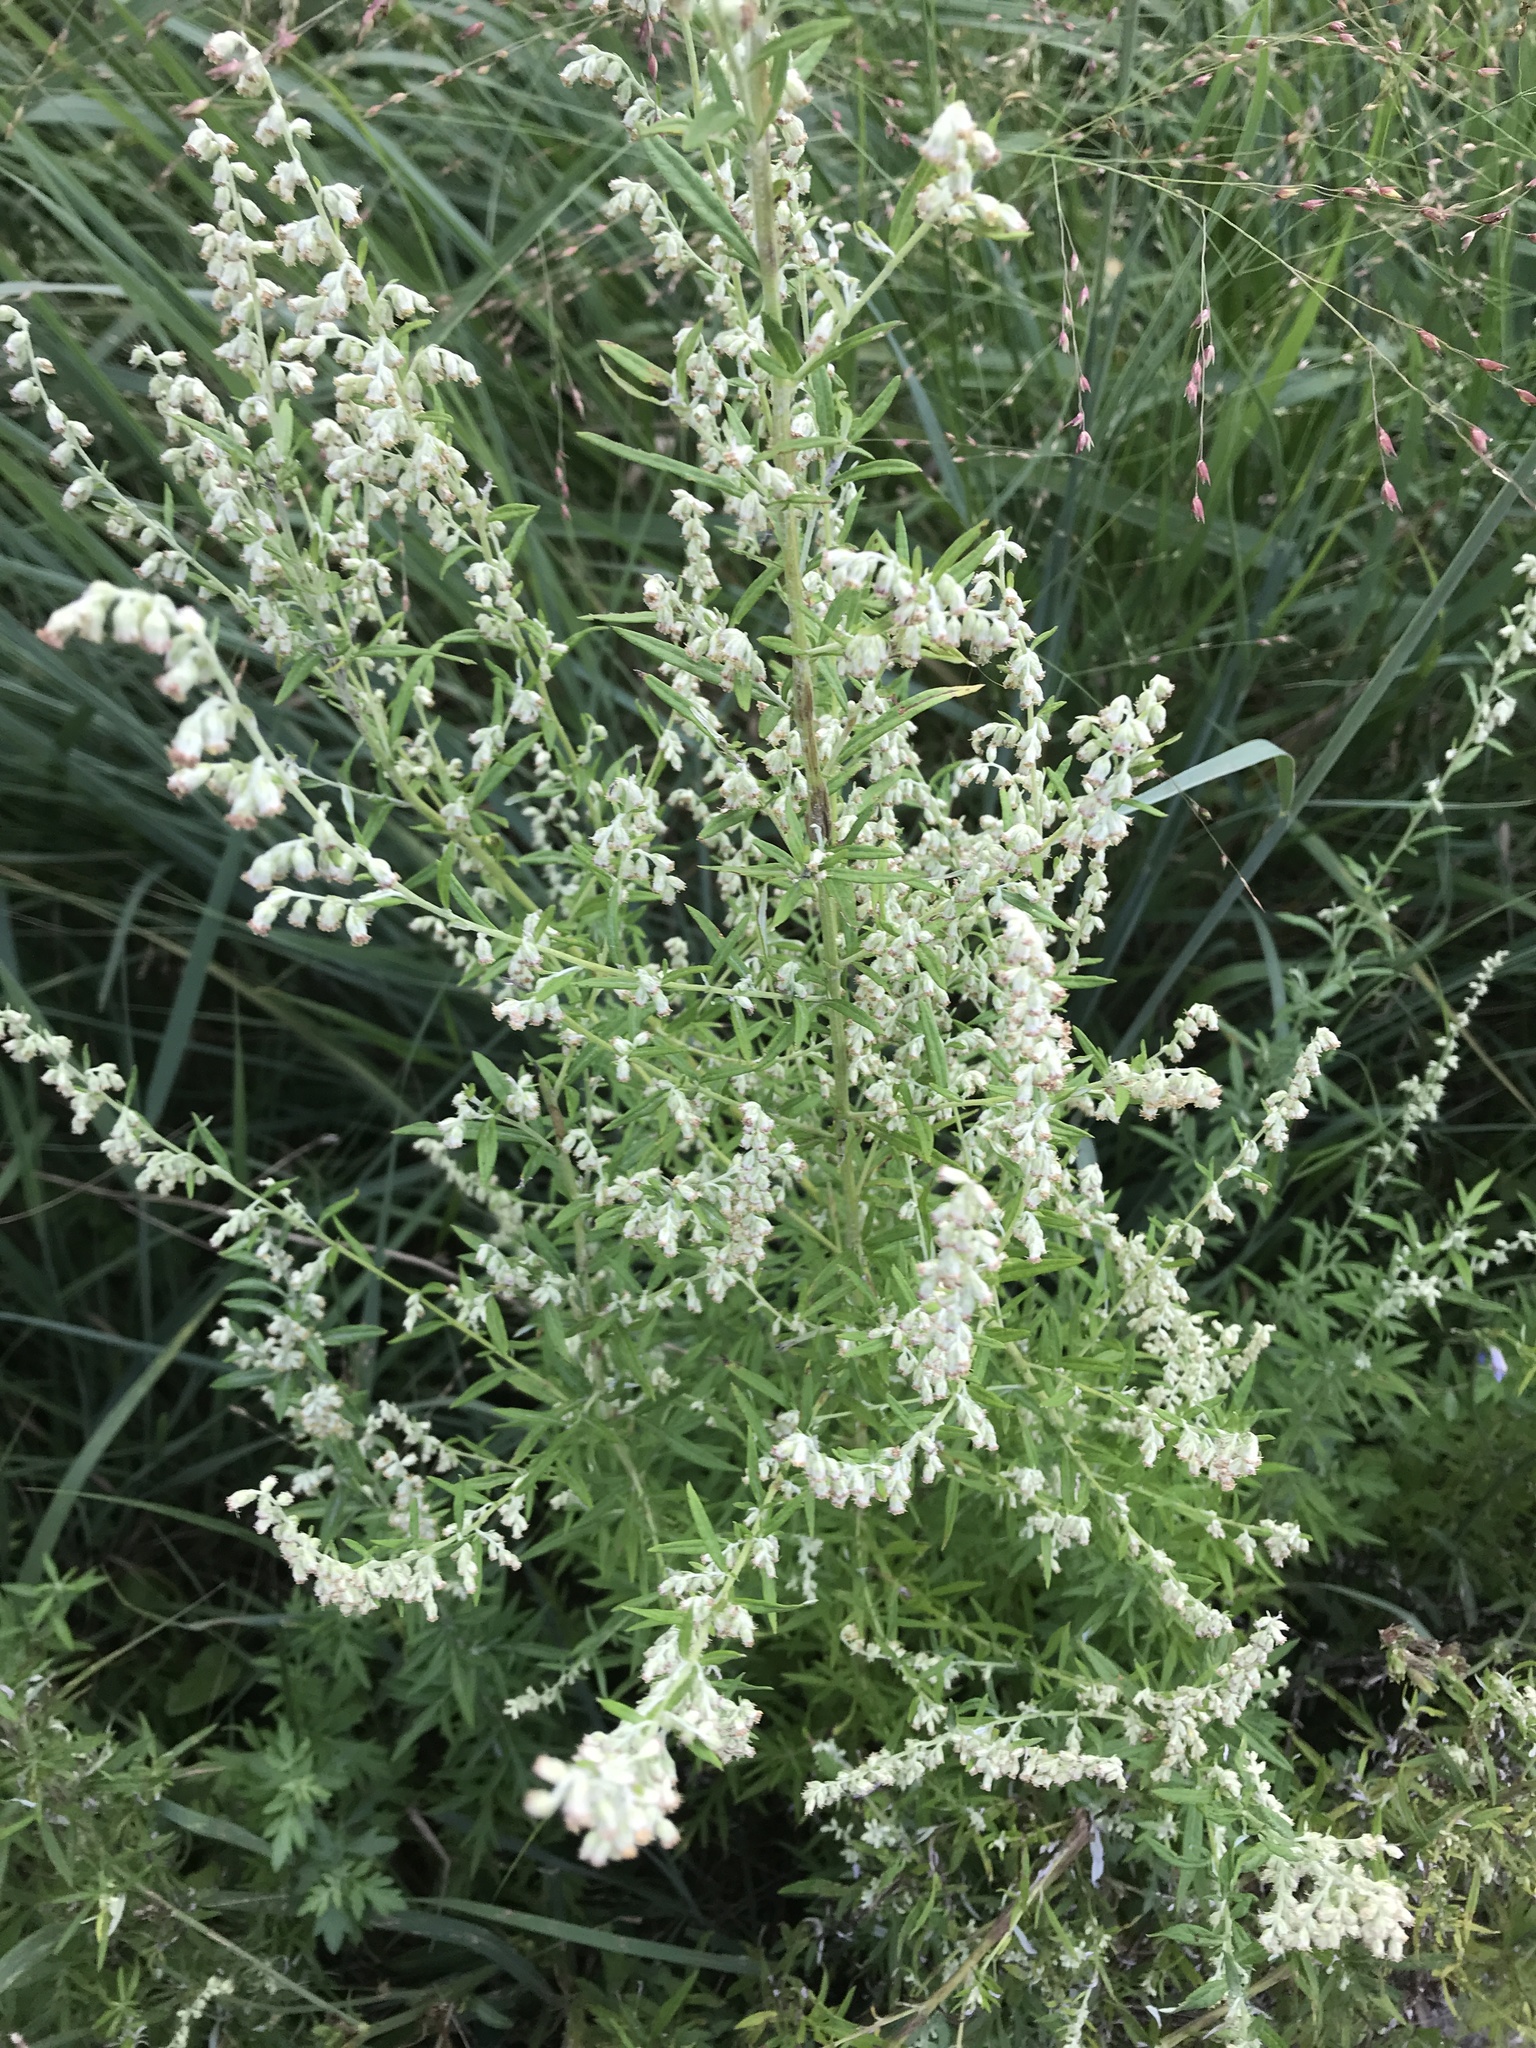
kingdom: Plantae
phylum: Tracheophyta
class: Magnoliopsida
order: Asterales
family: Asteraceae
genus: Artemisia
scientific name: Artemisia vulgaris
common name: Mugwort
